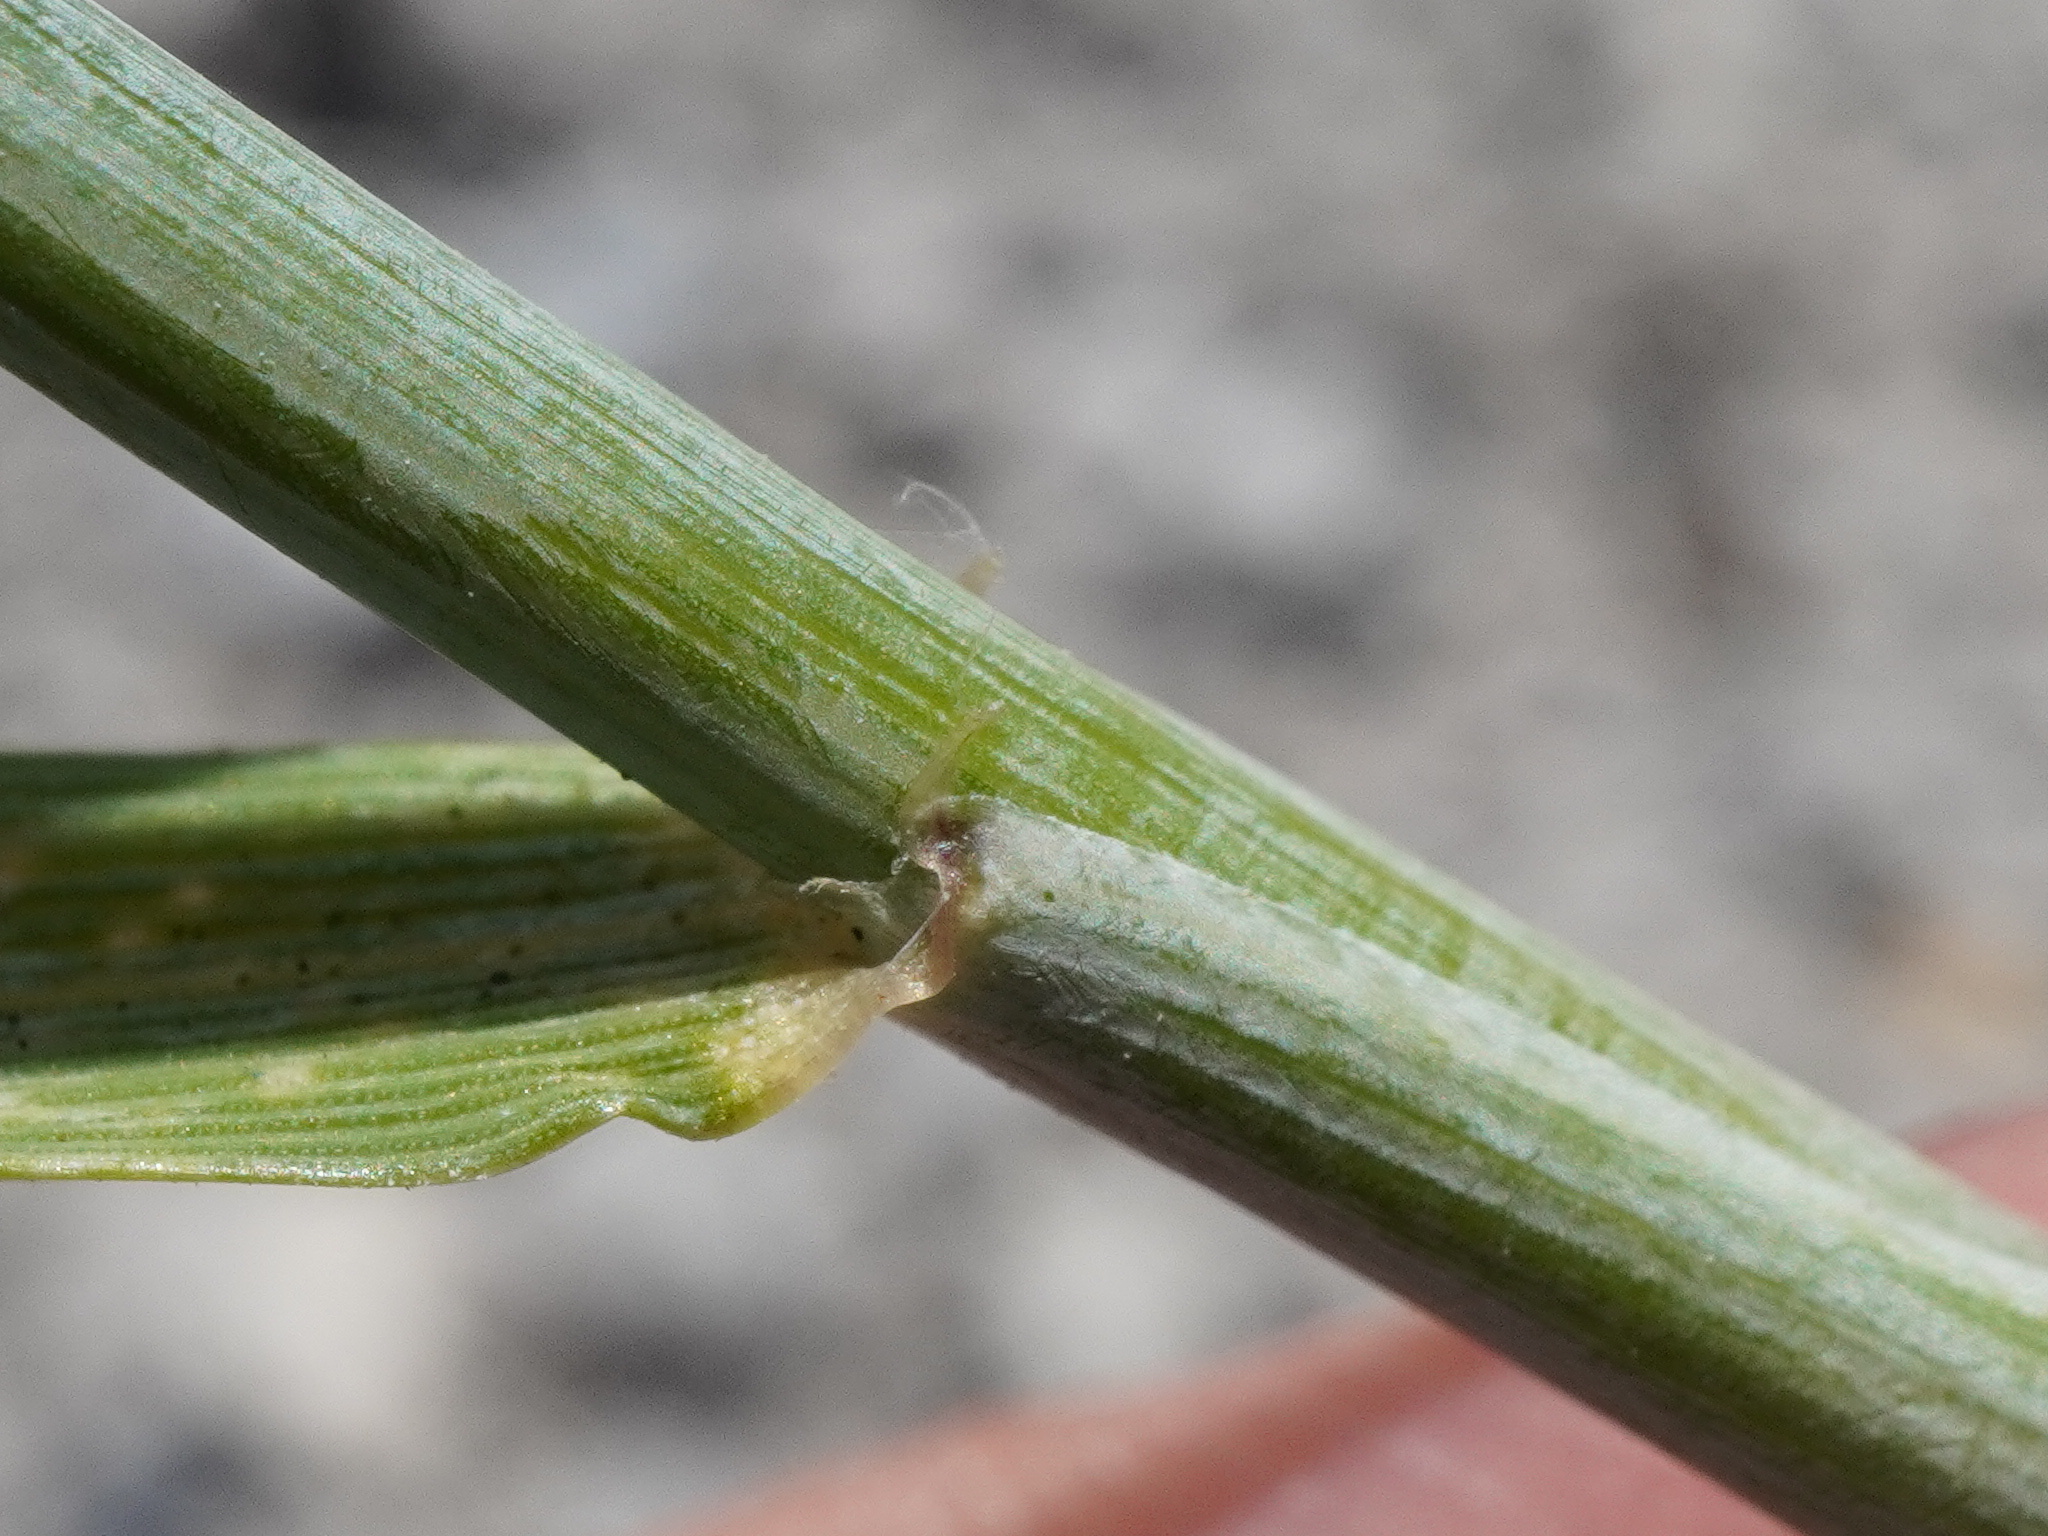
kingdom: Plantae
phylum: Tracheophyta
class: Liliopsida
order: Poales
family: Poaceae
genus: Secale
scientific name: Secale cereale
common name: Rye
